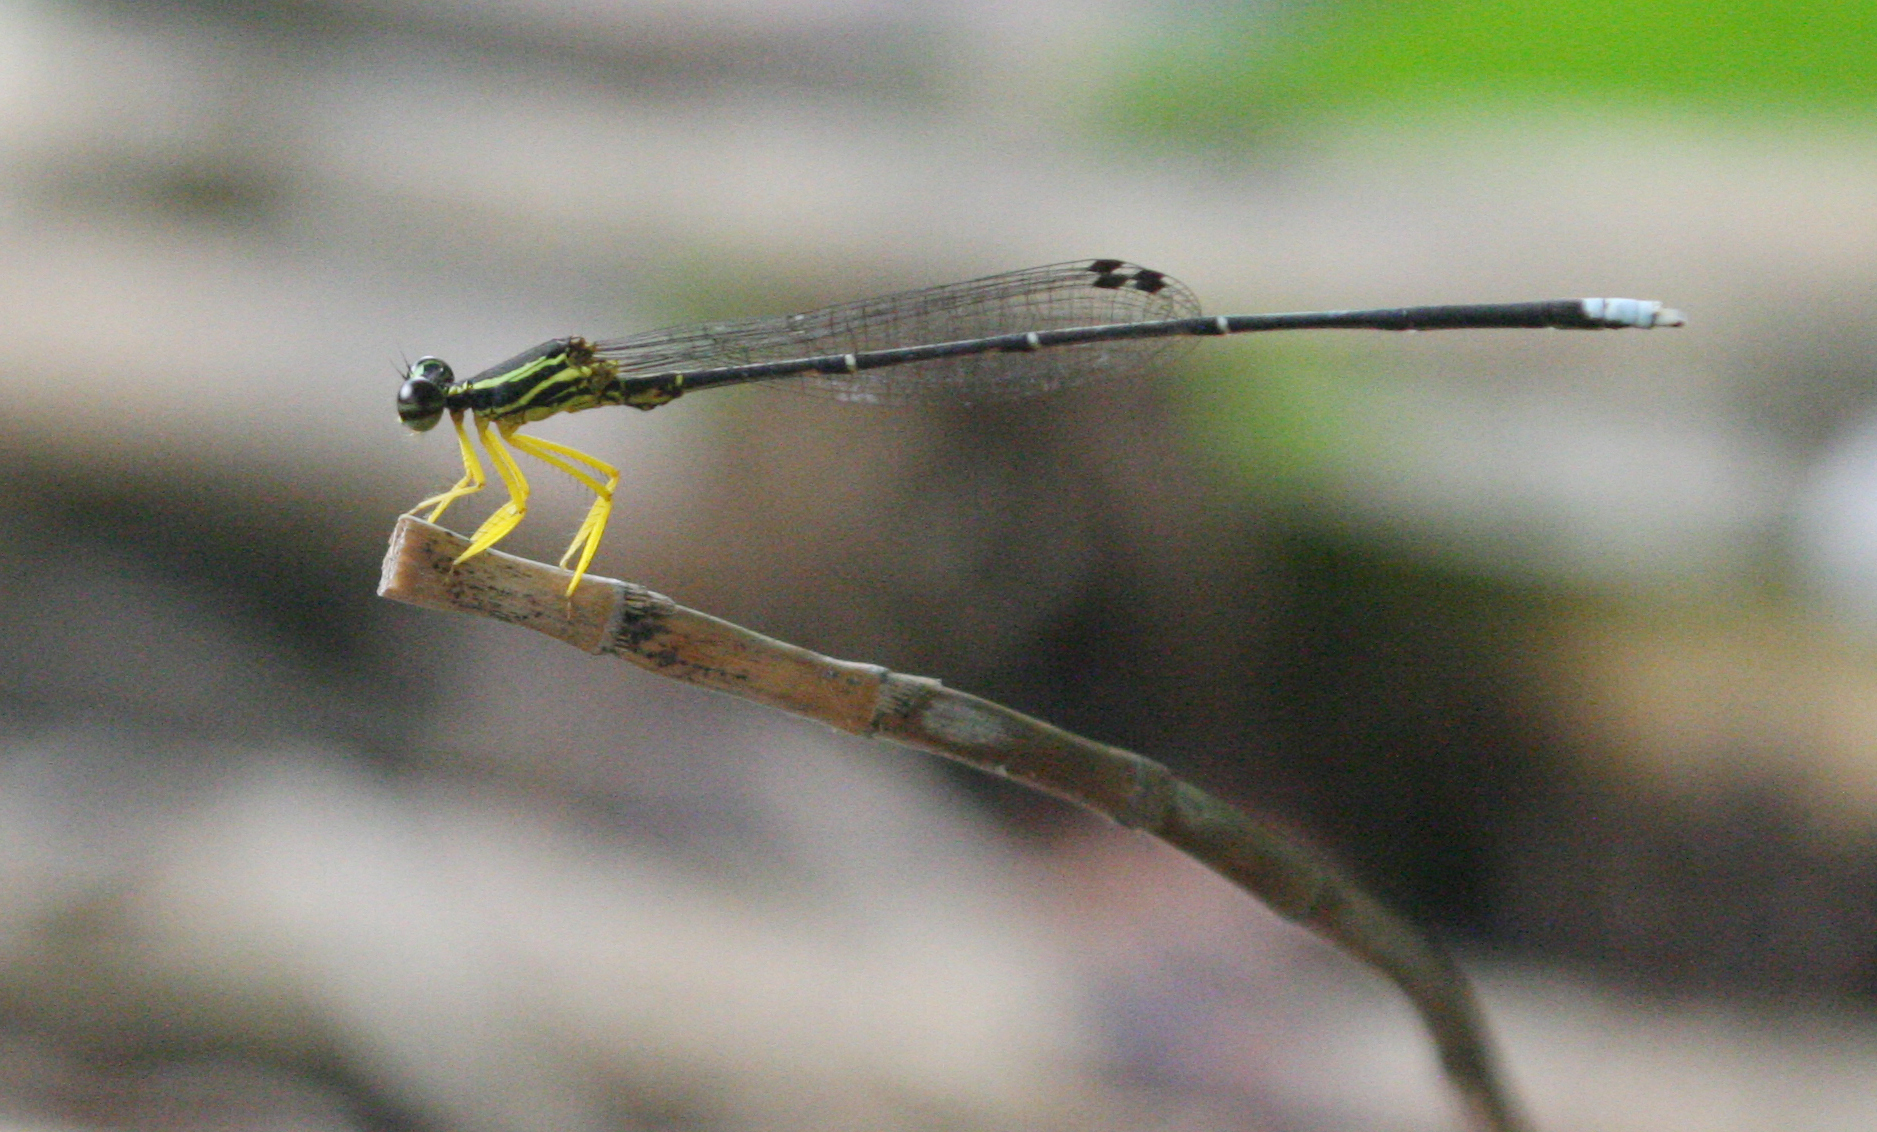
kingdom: Animalia
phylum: Arthropoda
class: Insecta
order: Odonata
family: Platycnemididae
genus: Copera
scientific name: Copera marginipes
